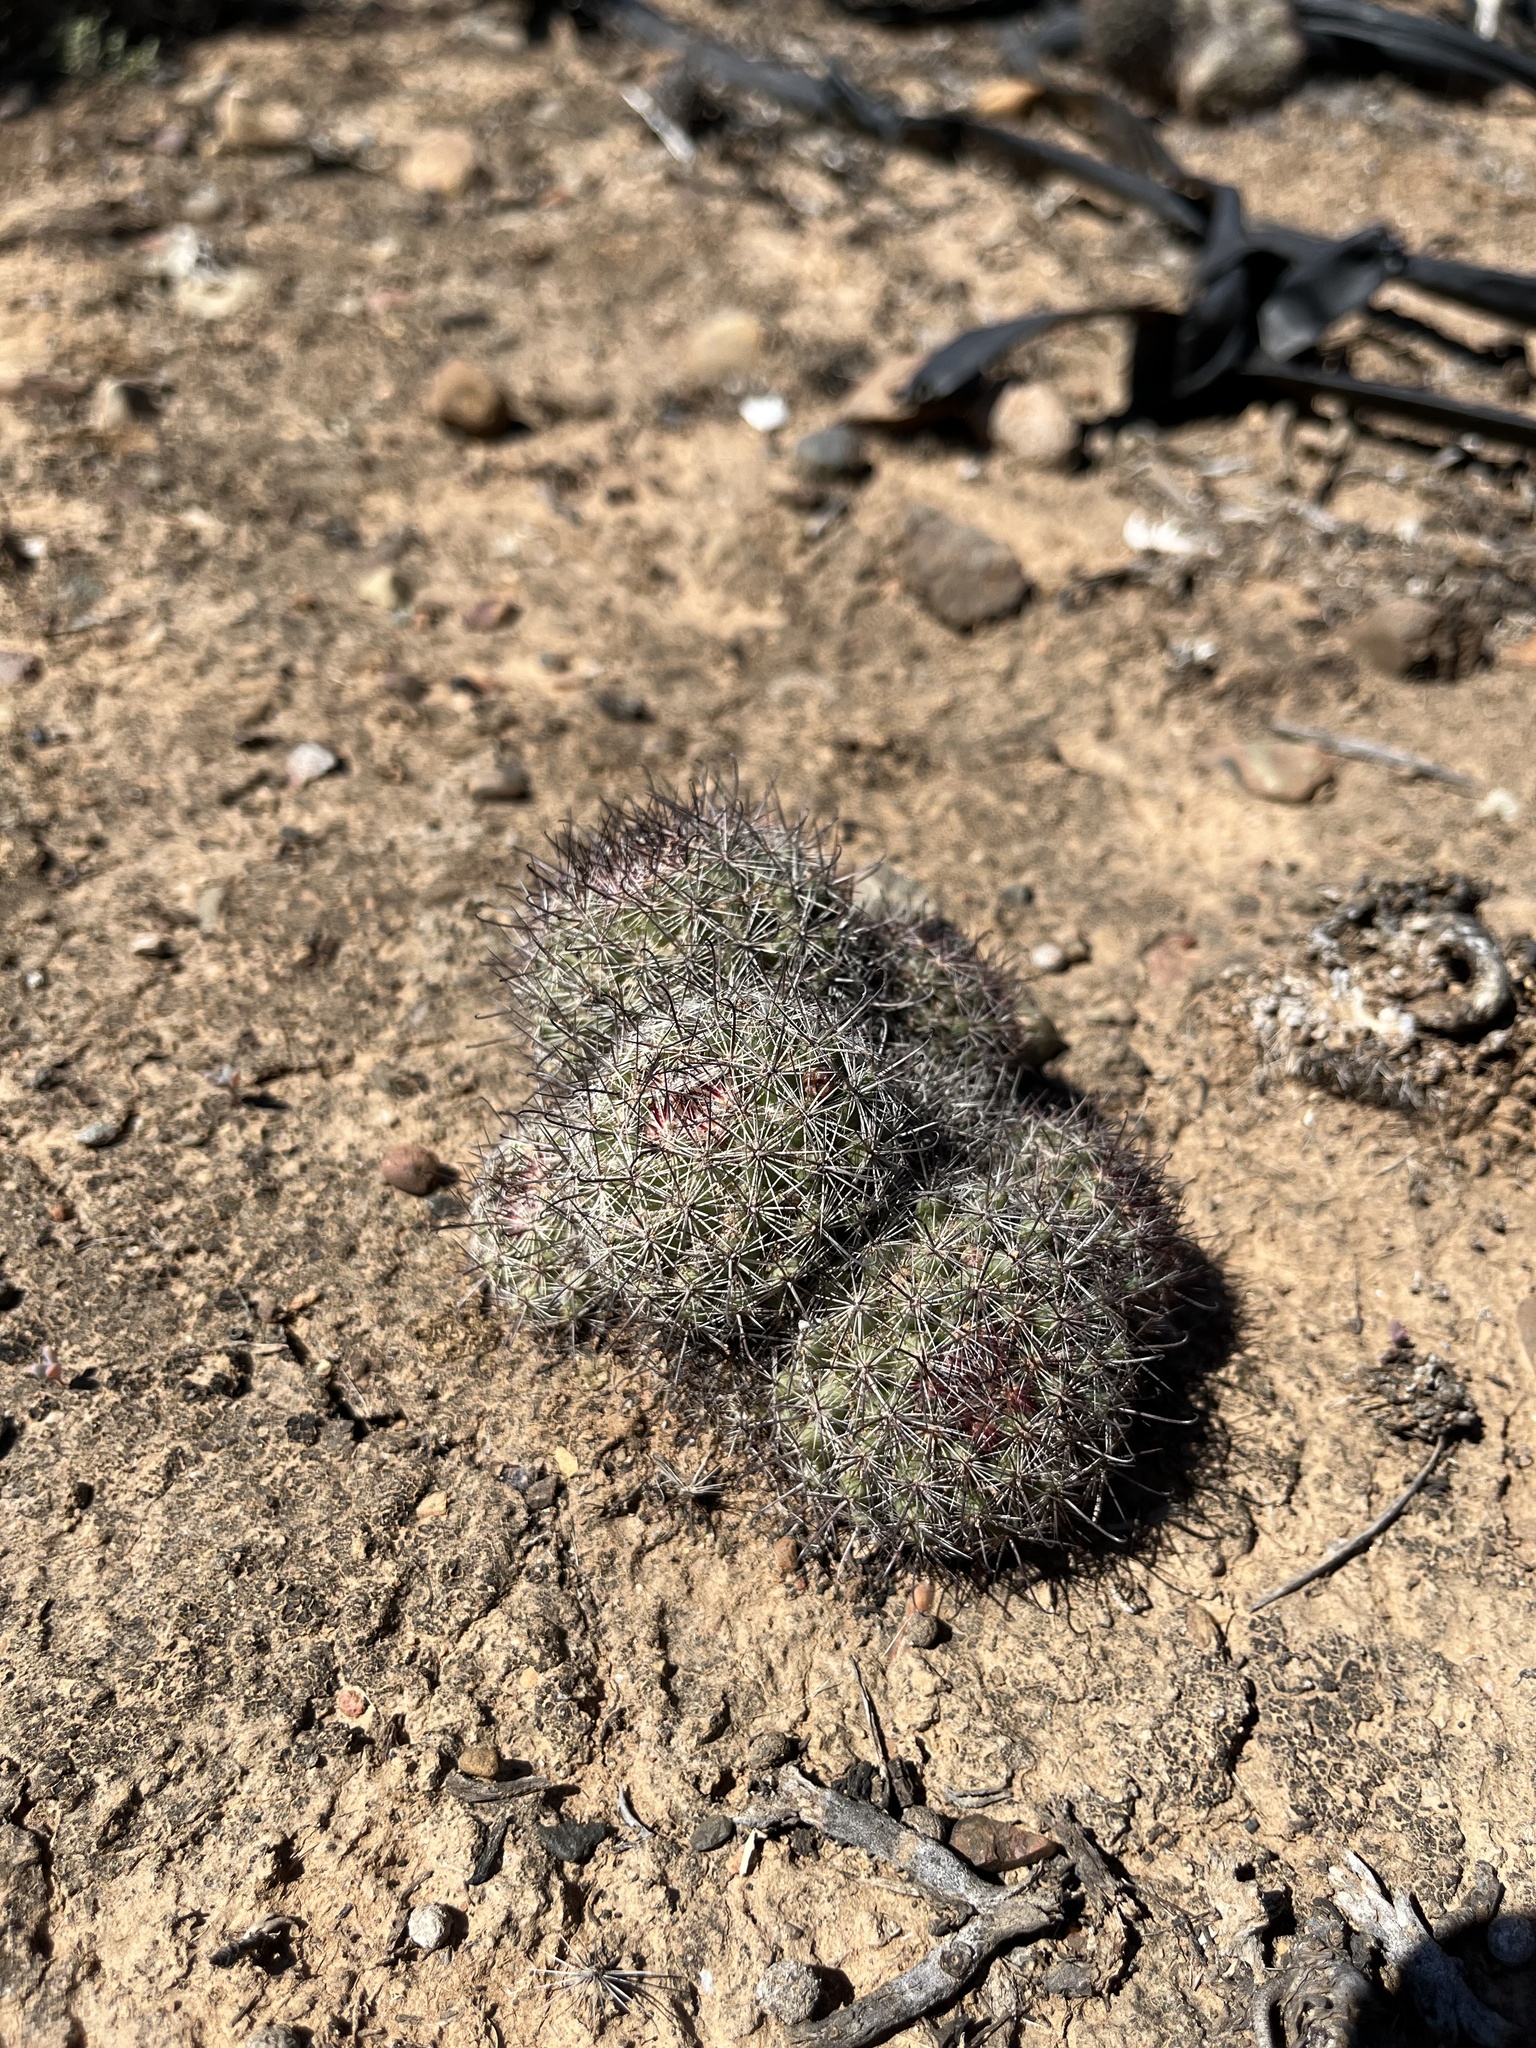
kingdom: Plantae
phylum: Tracheophyta
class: Magnoliopsida
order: Caryophyllales
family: Cactaceae
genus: Cochemiea
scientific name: Cochemiea dioica
